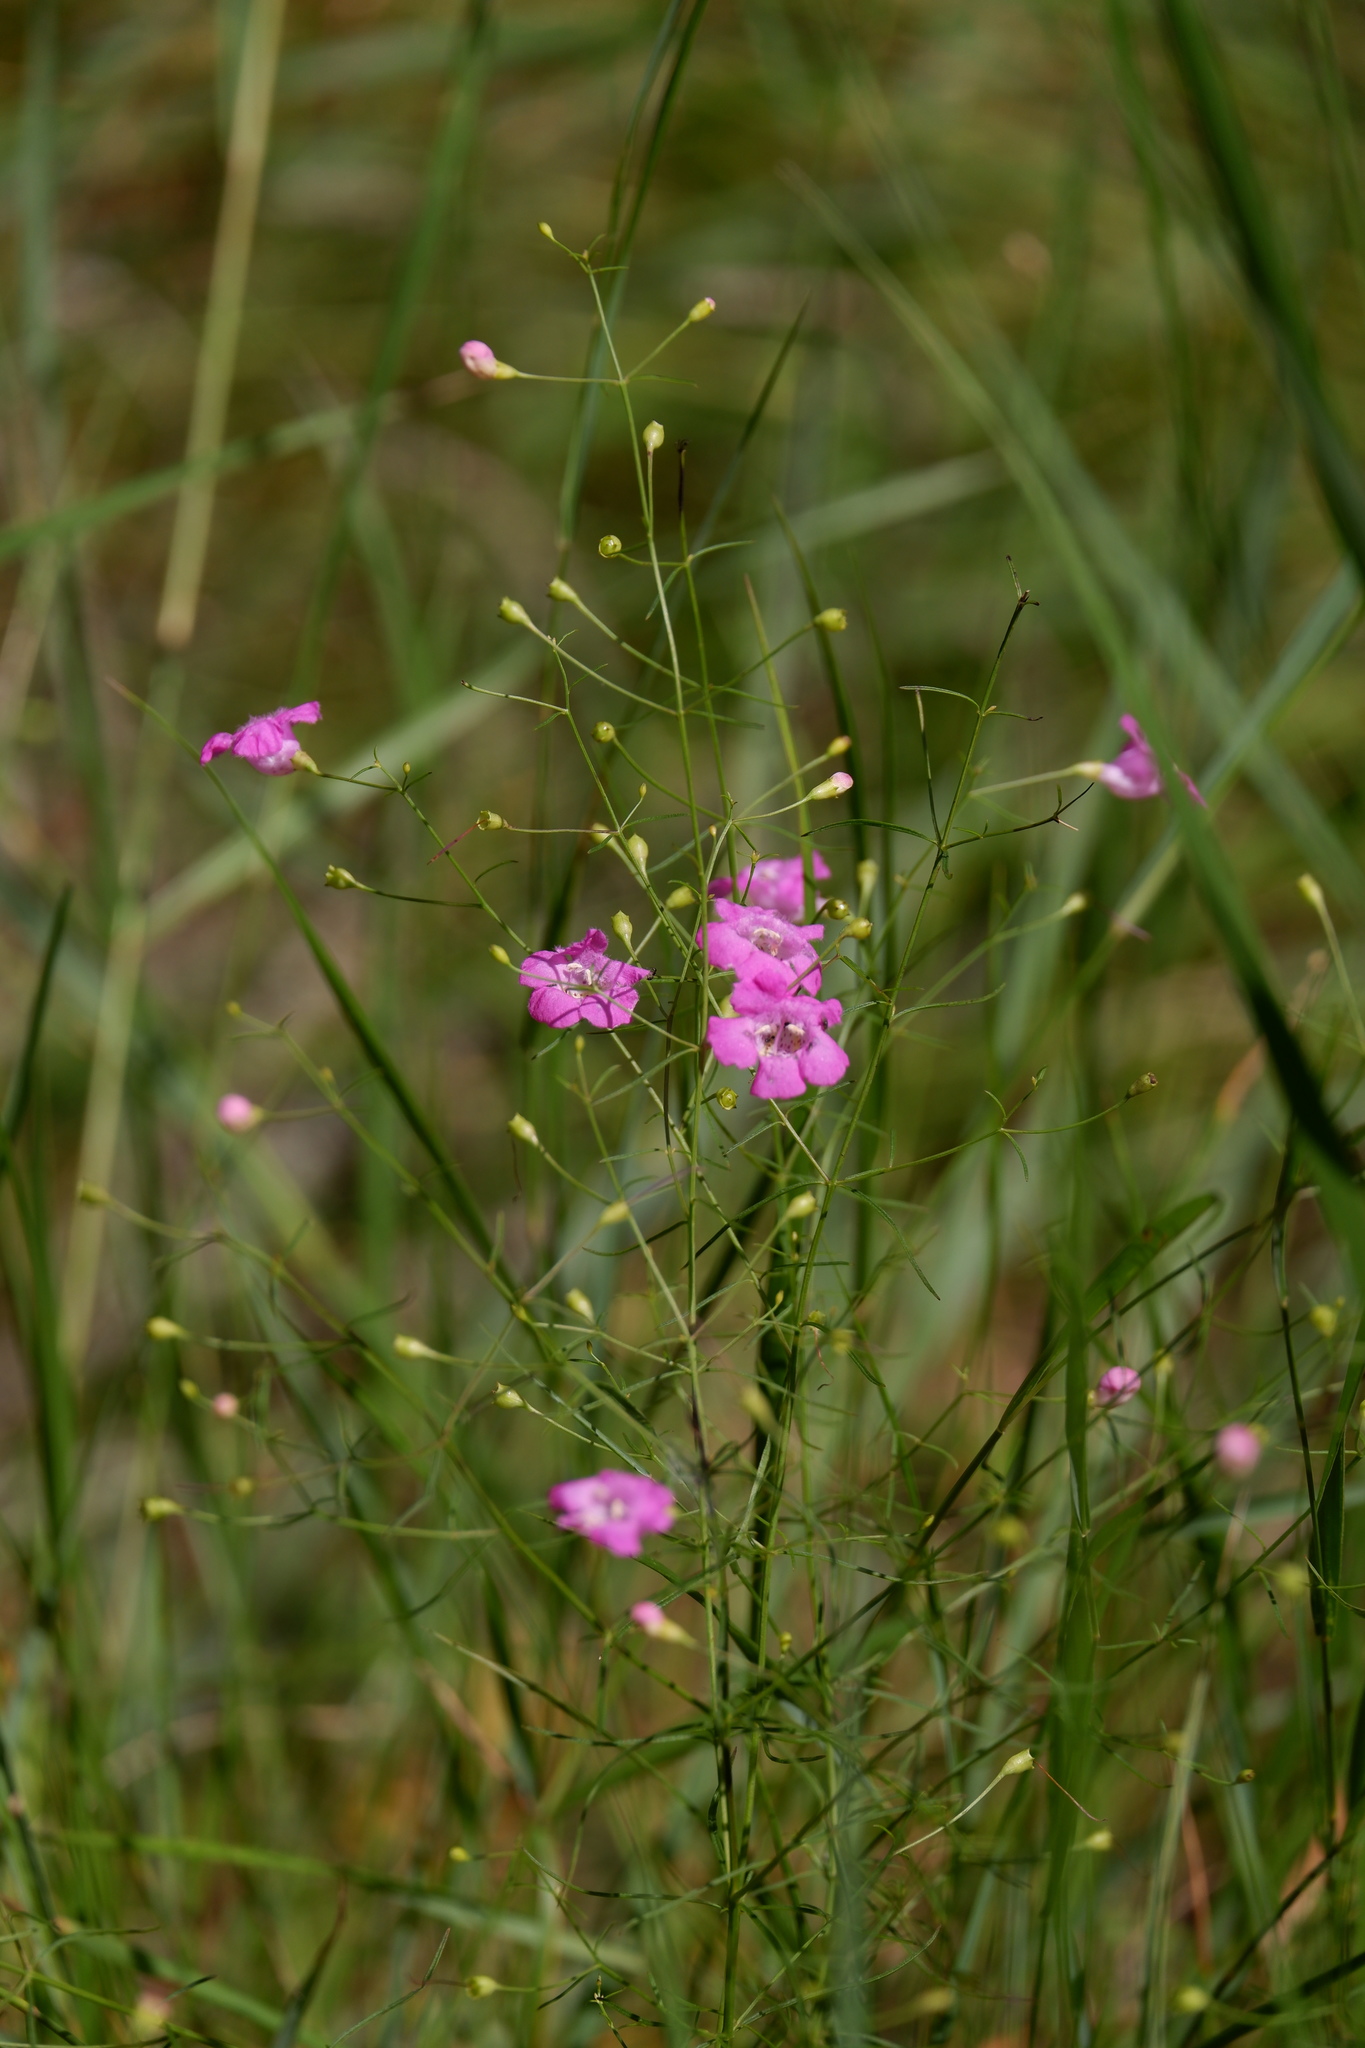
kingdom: Plantae
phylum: Tracheophyta
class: Magnoliopsida
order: Lamiales
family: Orobanchaceae
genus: Agalinis
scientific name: Agalinis setacea
